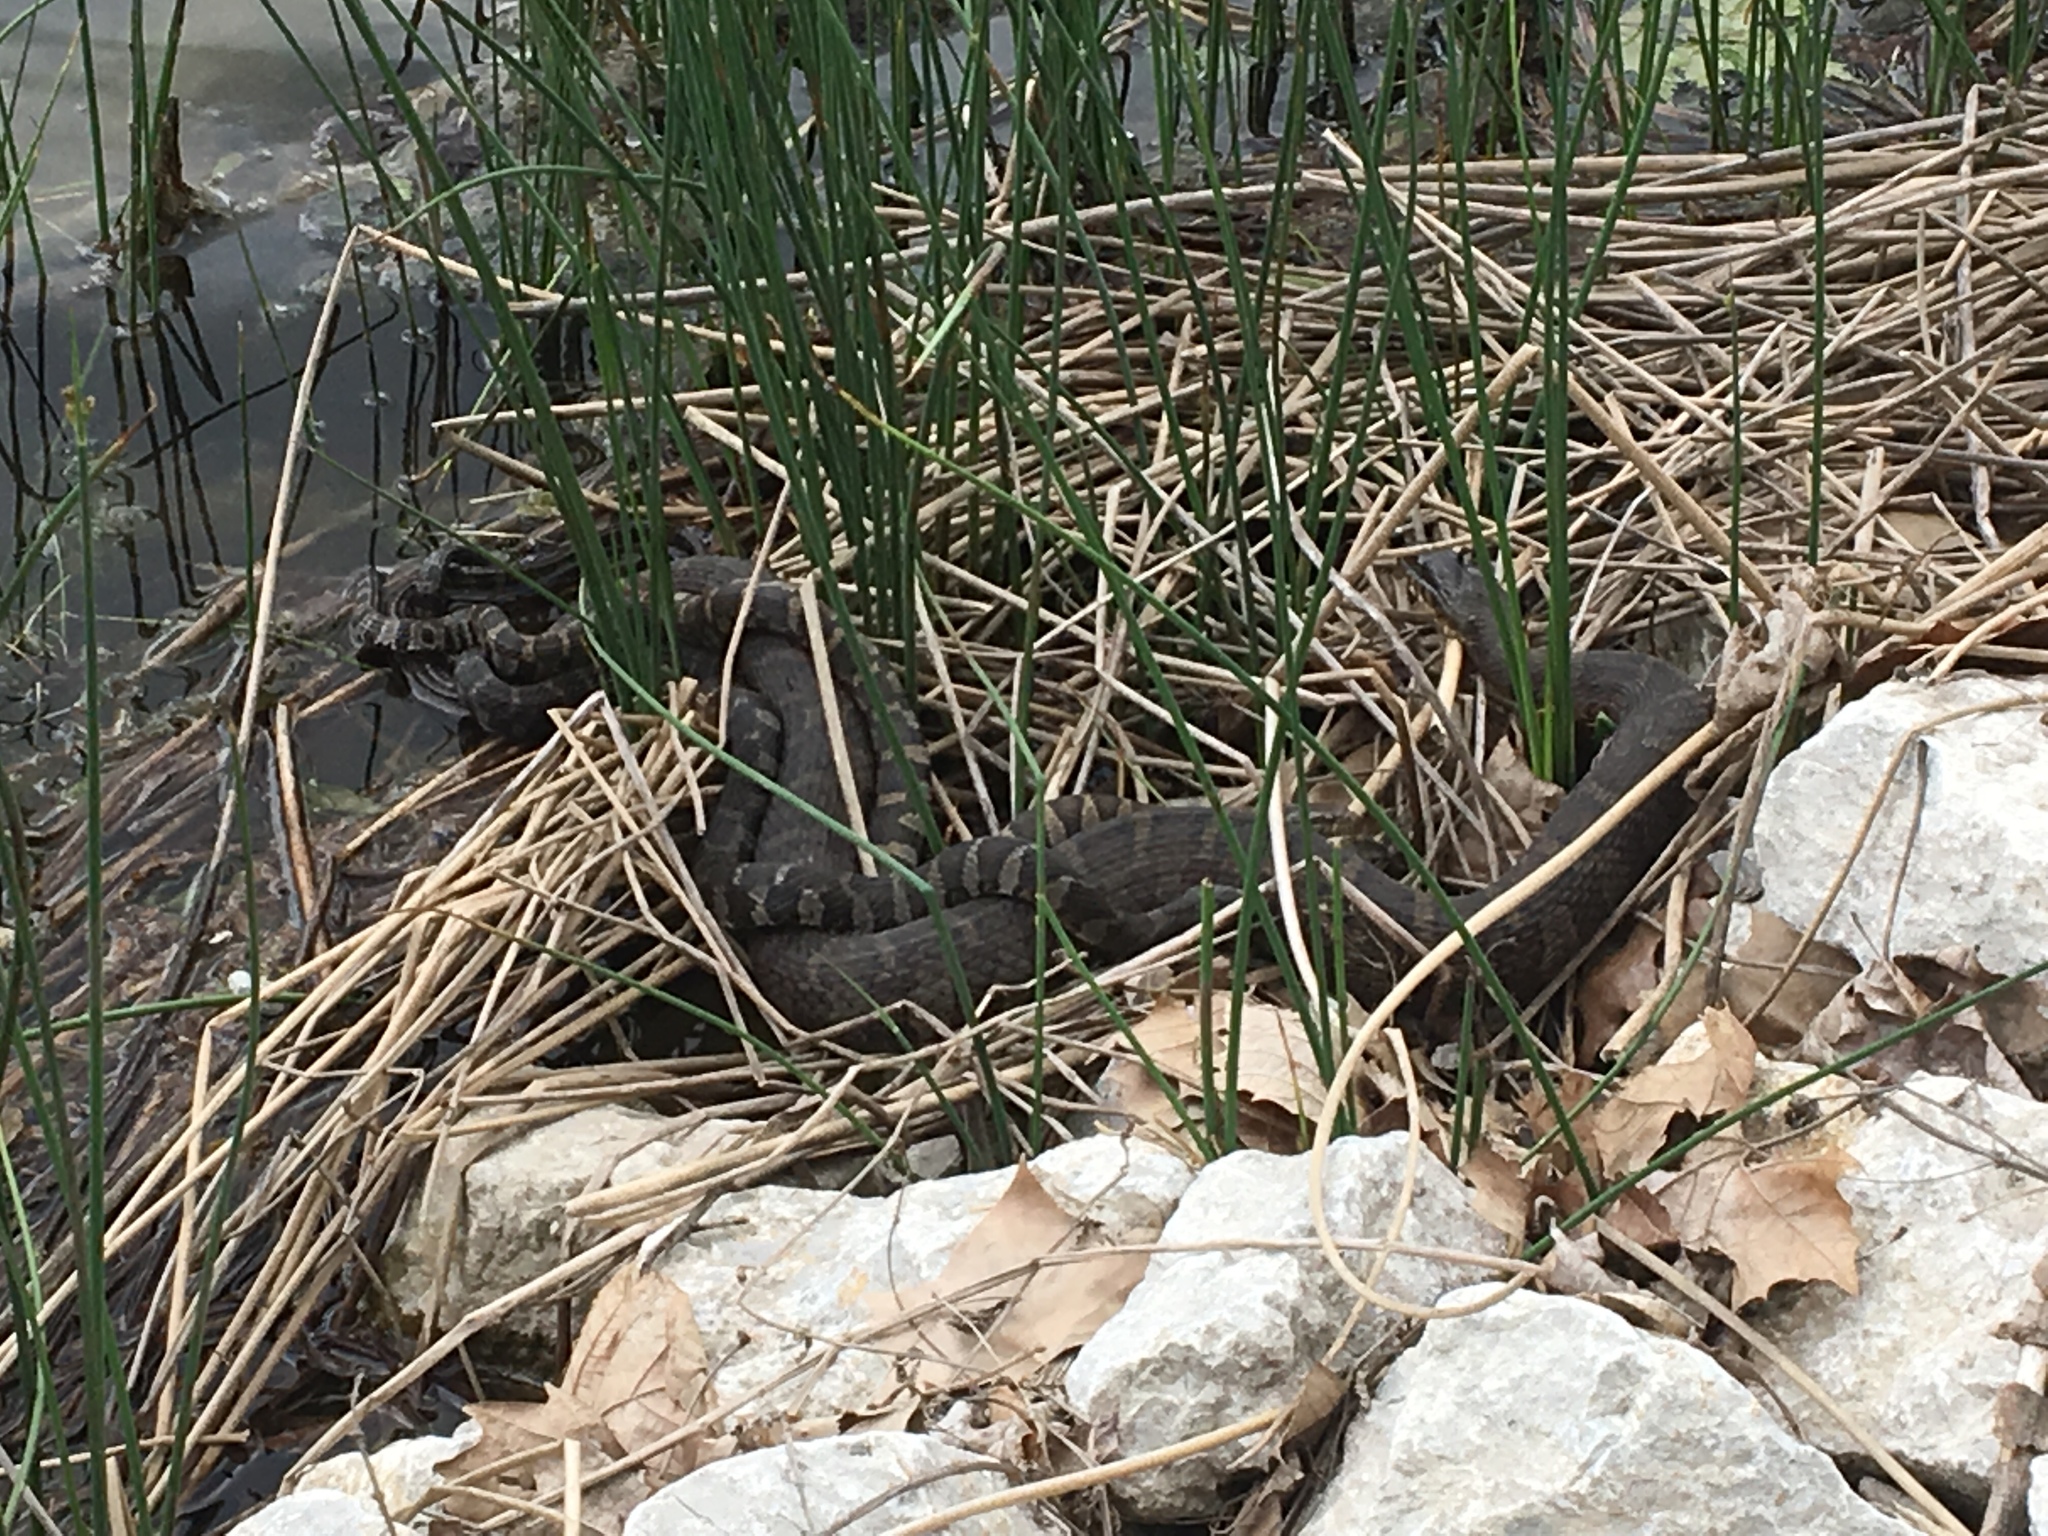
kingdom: Animalia
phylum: Chordata
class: Squamata
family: Colubridae
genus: Nerodia
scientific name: Nerodia sipedon
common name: Northern water snake
